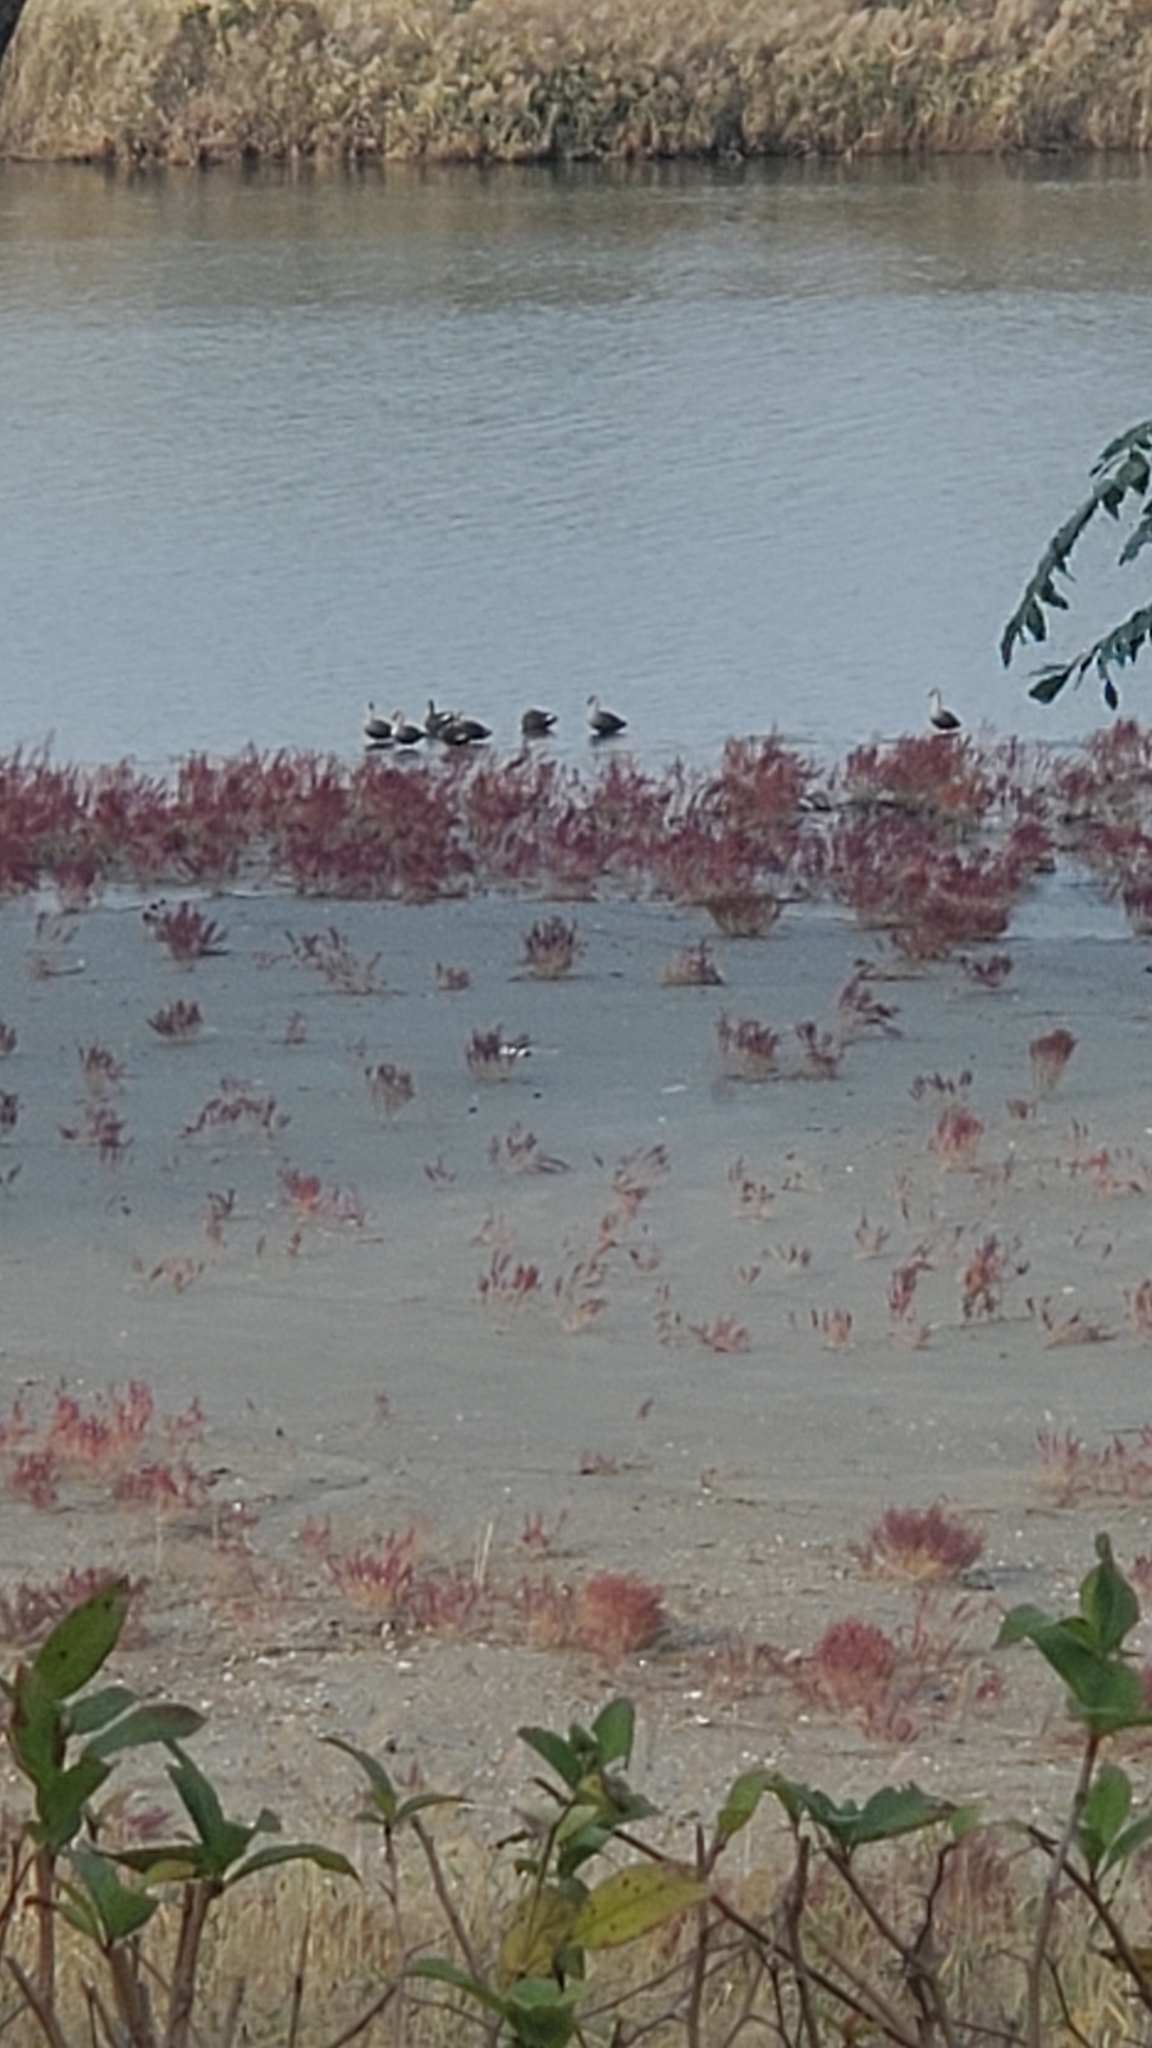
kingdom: Animalia
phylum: Chordata
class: Aves
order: Anseriformes
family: Anatidae
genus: Anas
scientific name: Anas zonorhyncha
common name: Eastern spot-billed duck
